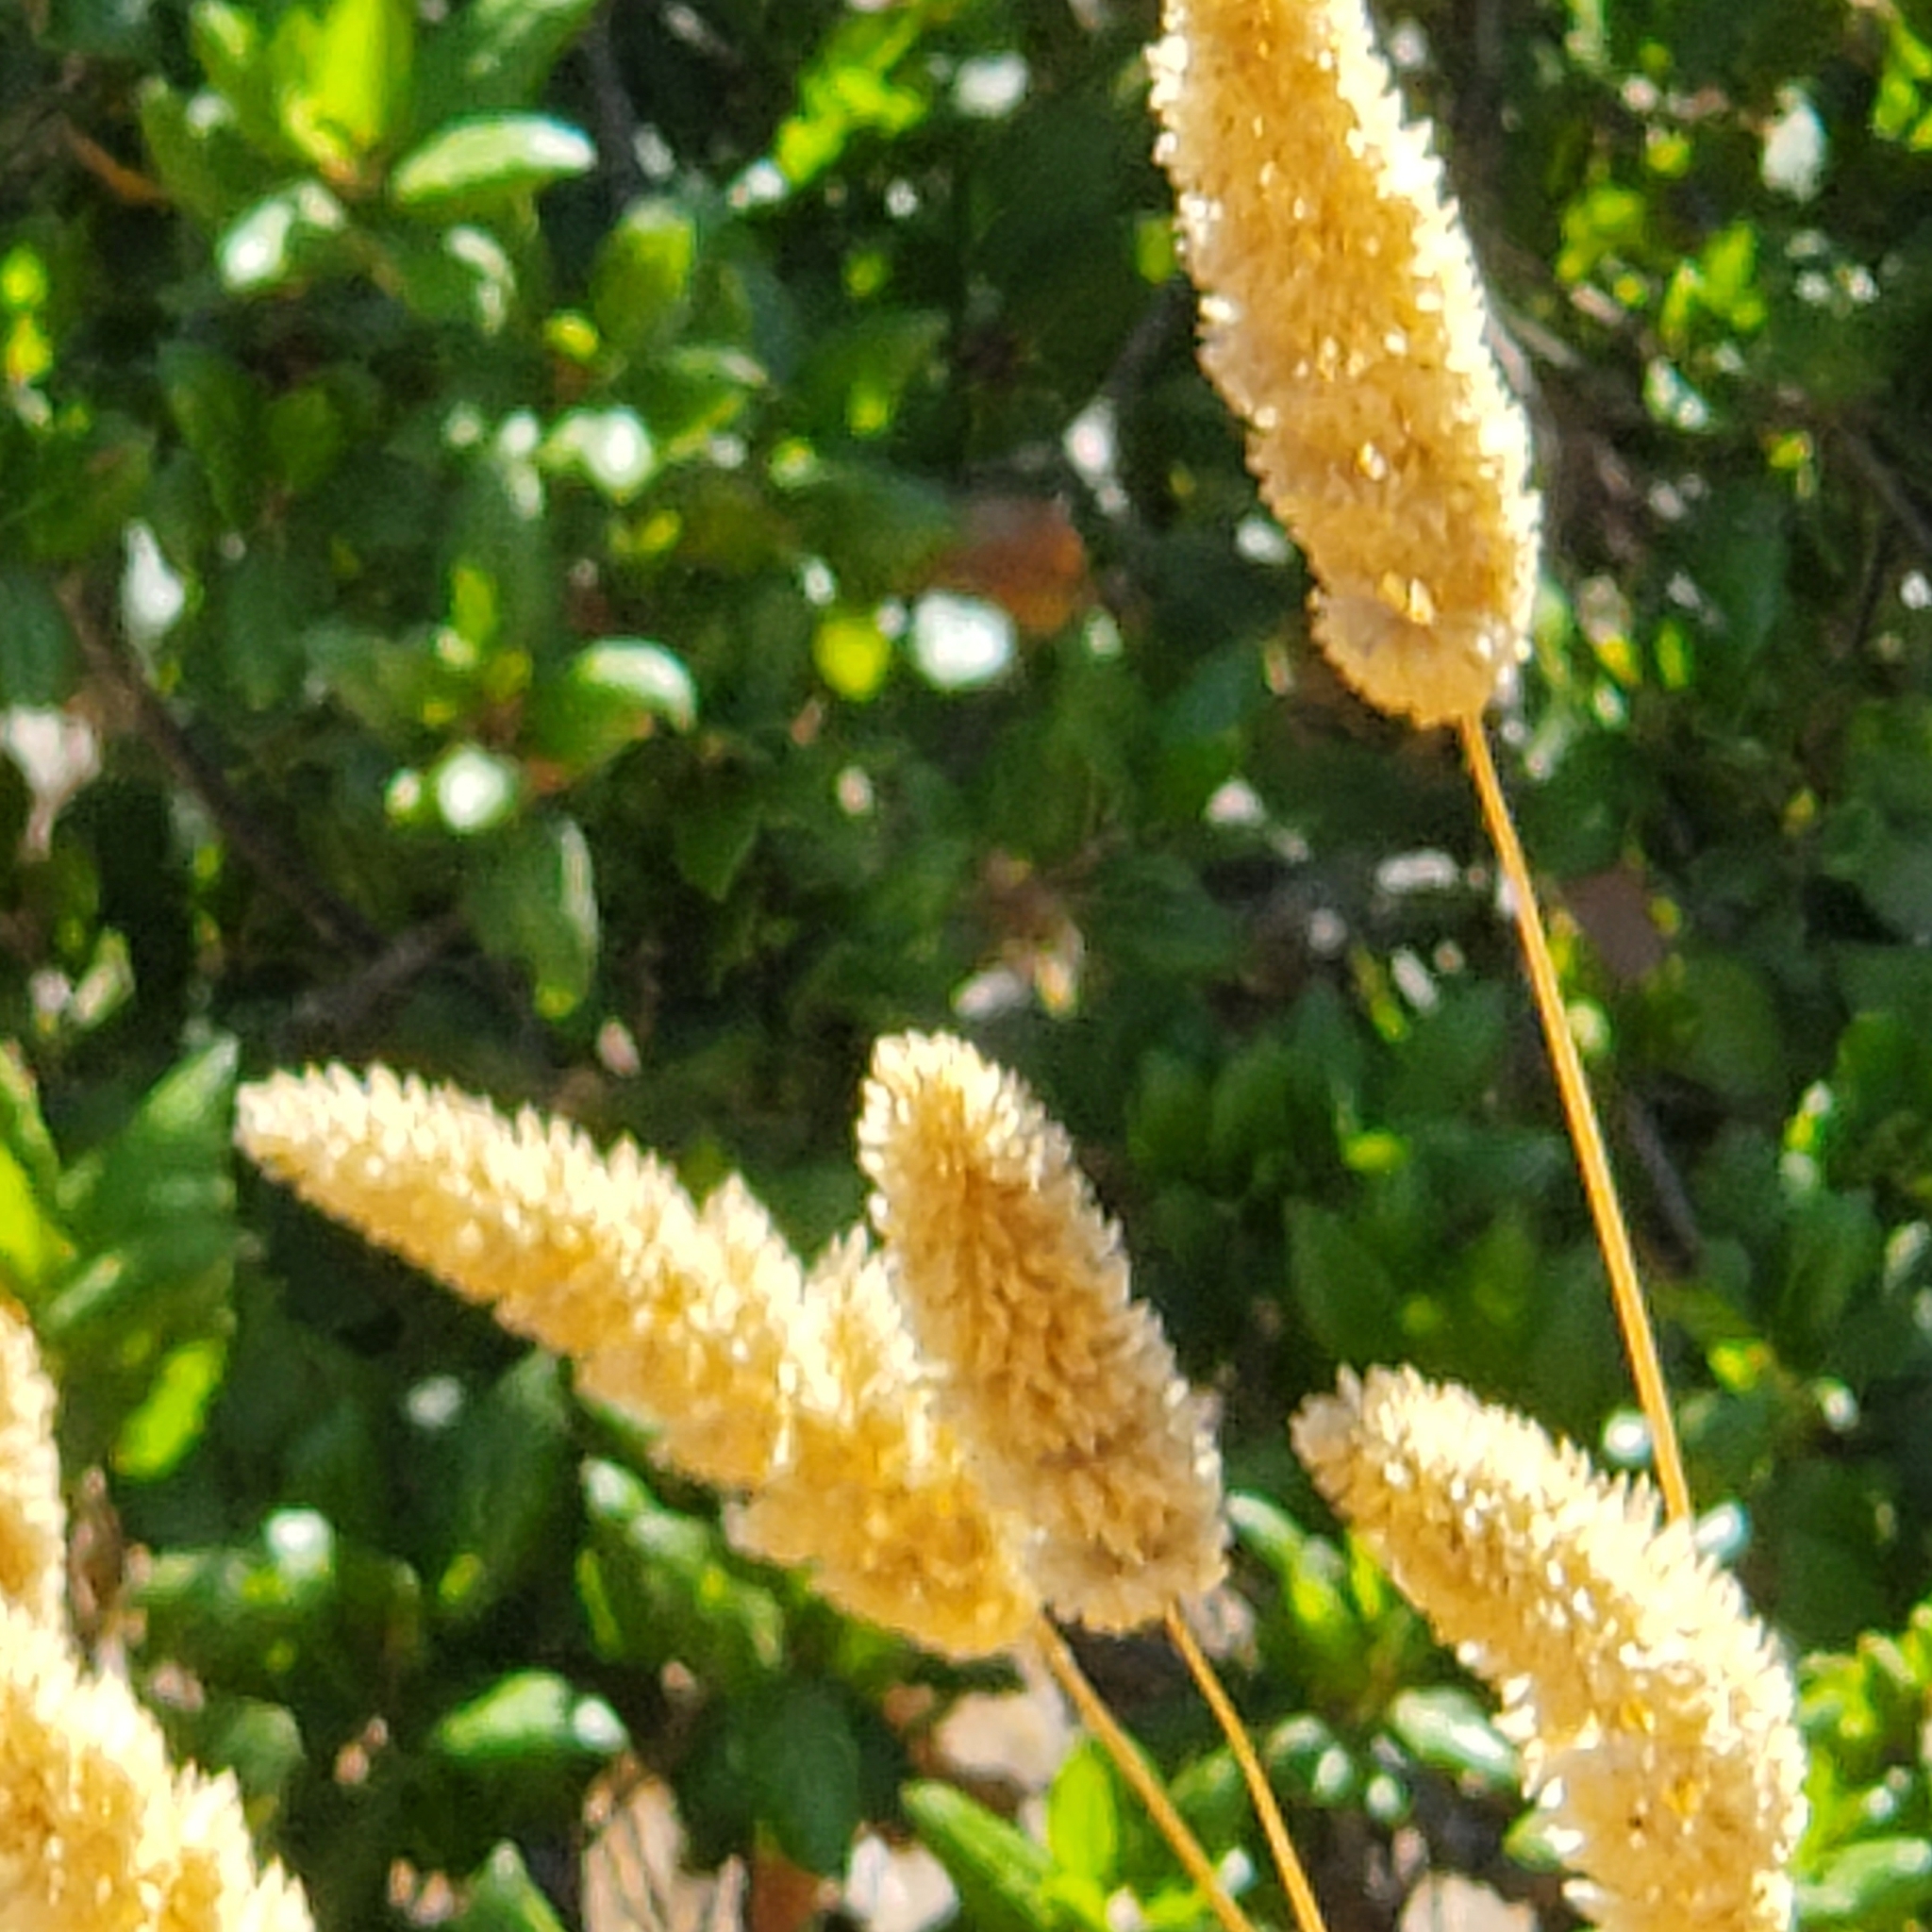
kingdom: Plantae
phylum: Tracheophyta
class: Liliopsida
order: Poales
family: Poaceae
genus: Phalaris
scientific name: Phalaris aquatica
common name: Bulbous canary-grass
